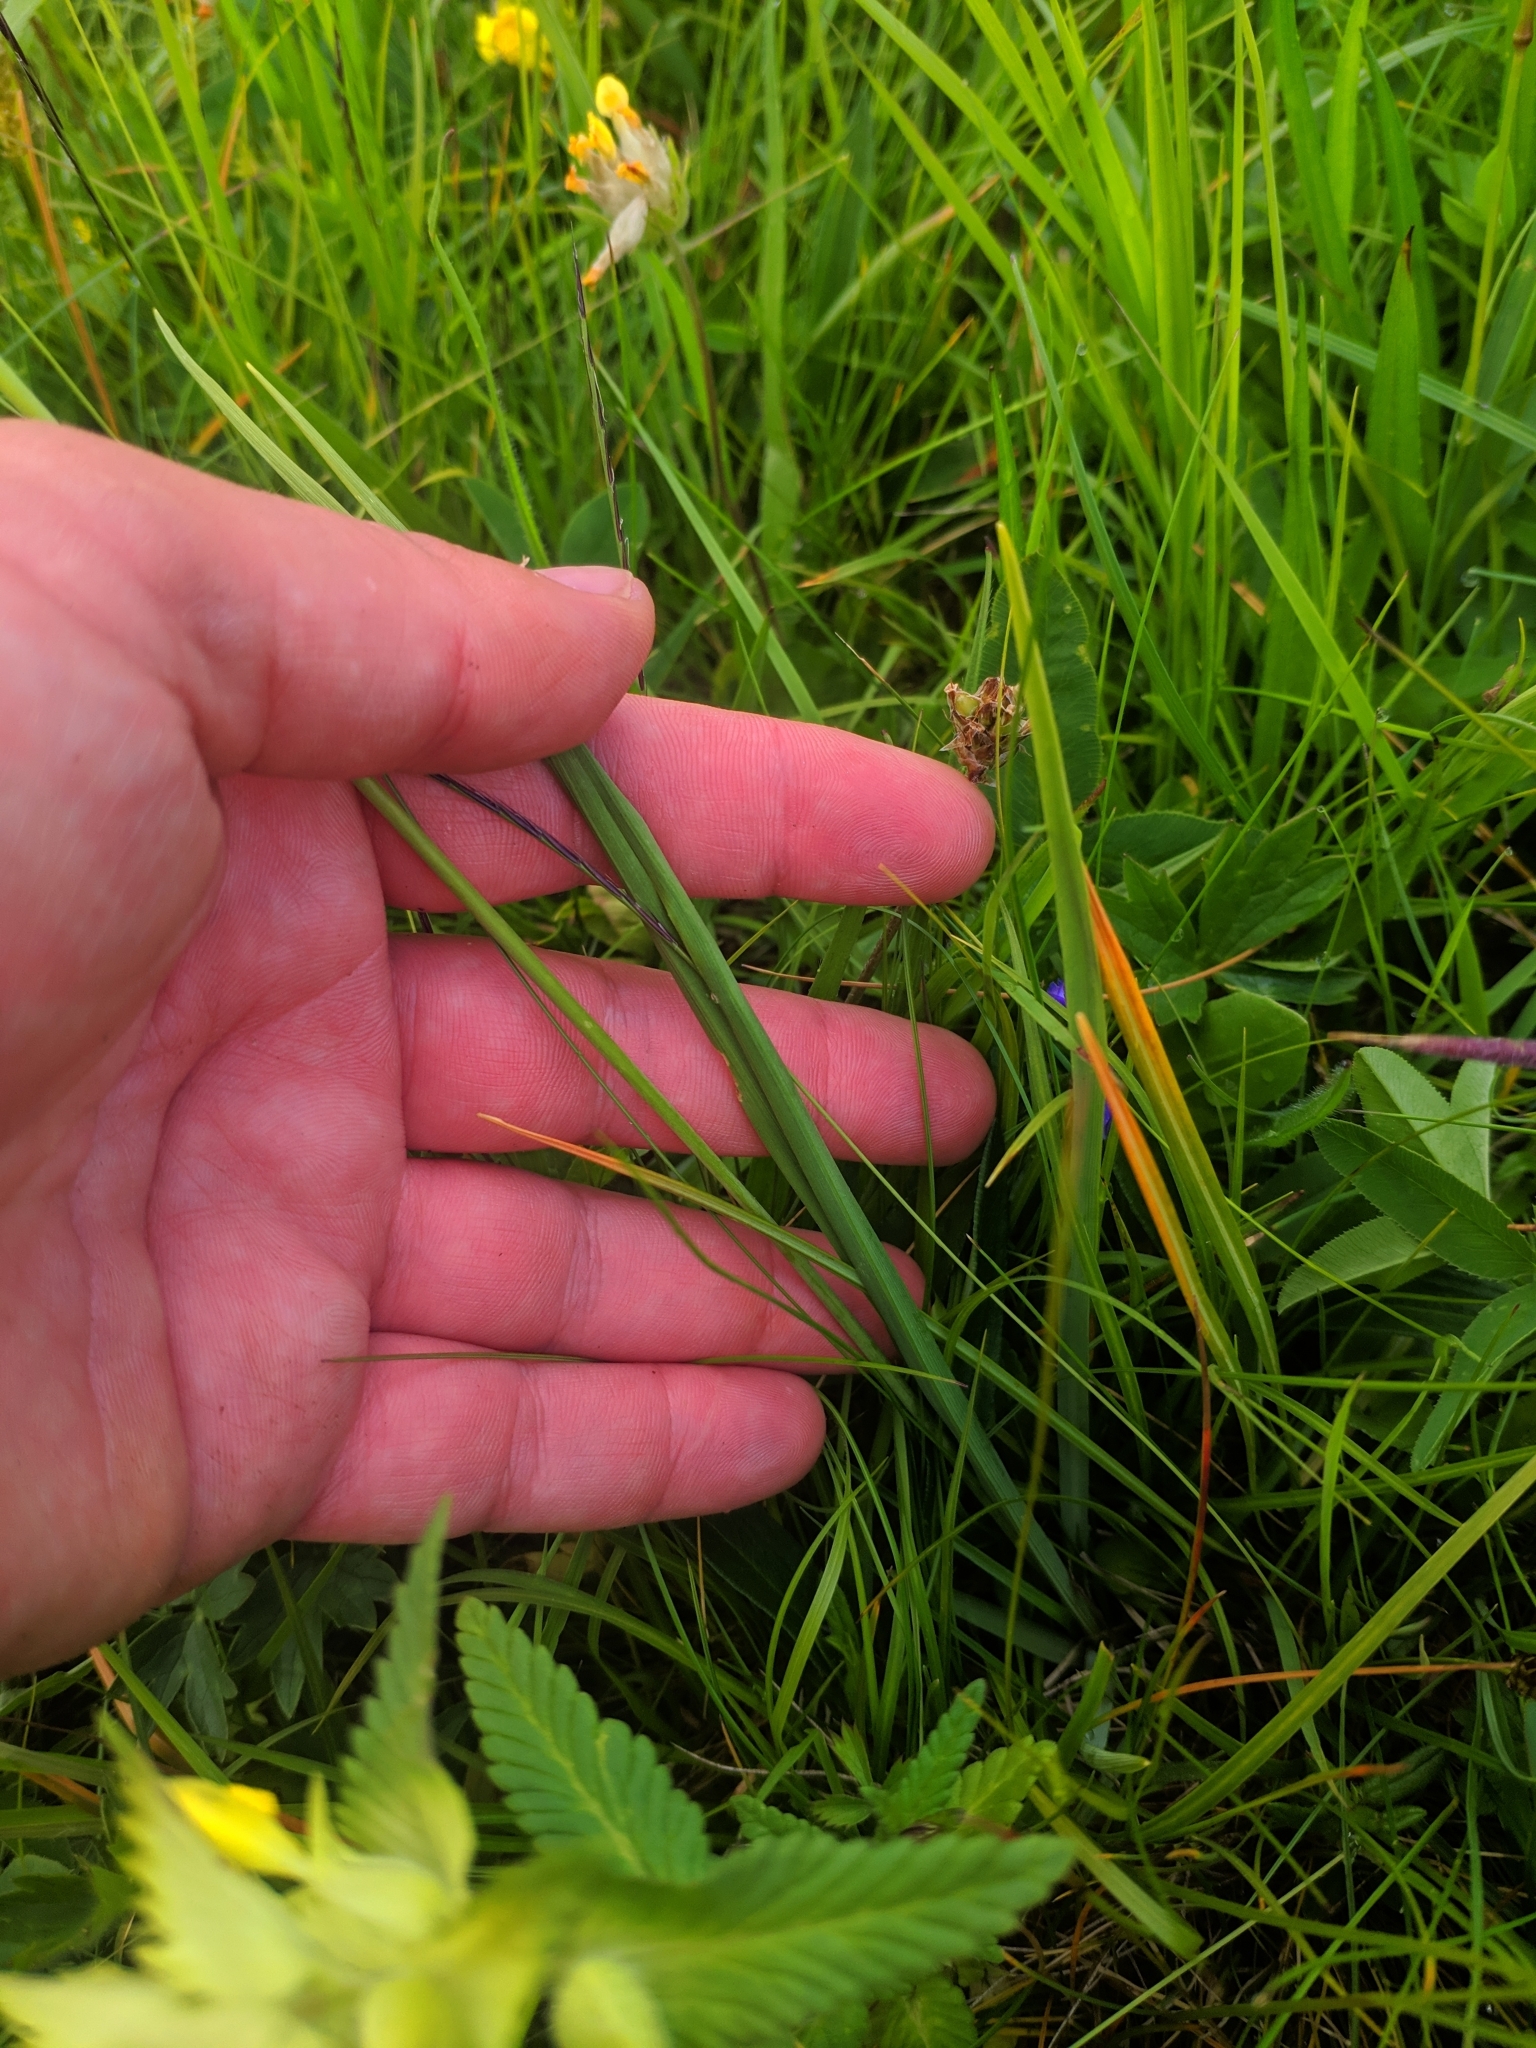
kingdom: Plantae
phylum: Tracheophyta
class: Liliopsida
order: Asparagales
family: Asparagaceae
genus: Paradisea
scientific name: Paradisea liliastrum
